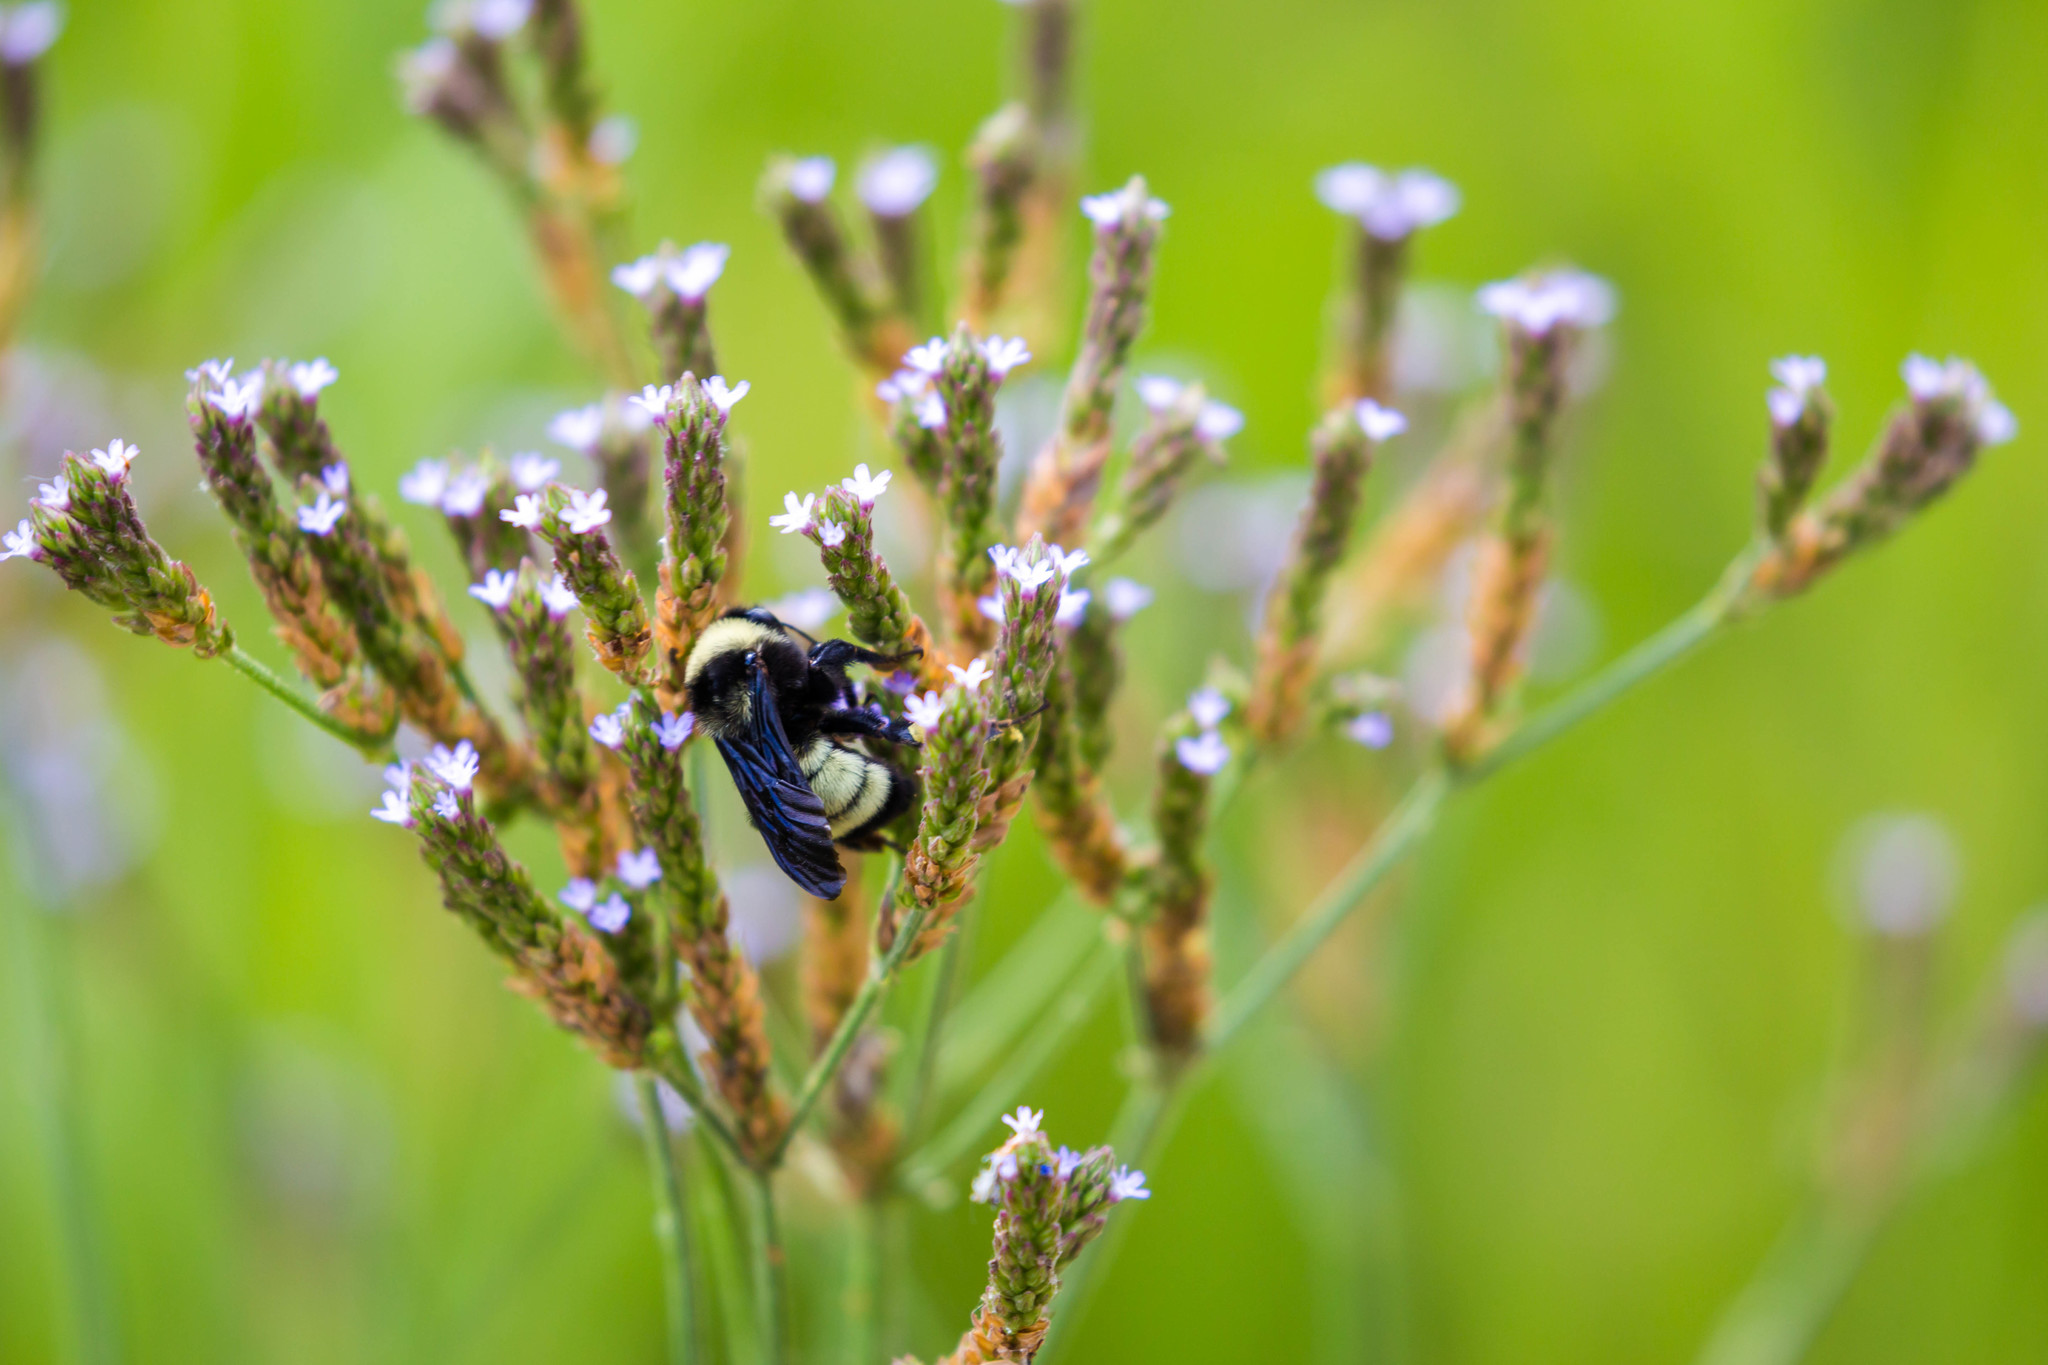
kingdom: Animalia
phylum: Arthropoda
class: Insecta
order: Hymenoptera
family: Apidae
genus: Bombus
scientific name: Bombus pensylvanicus
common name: Bumble bee
